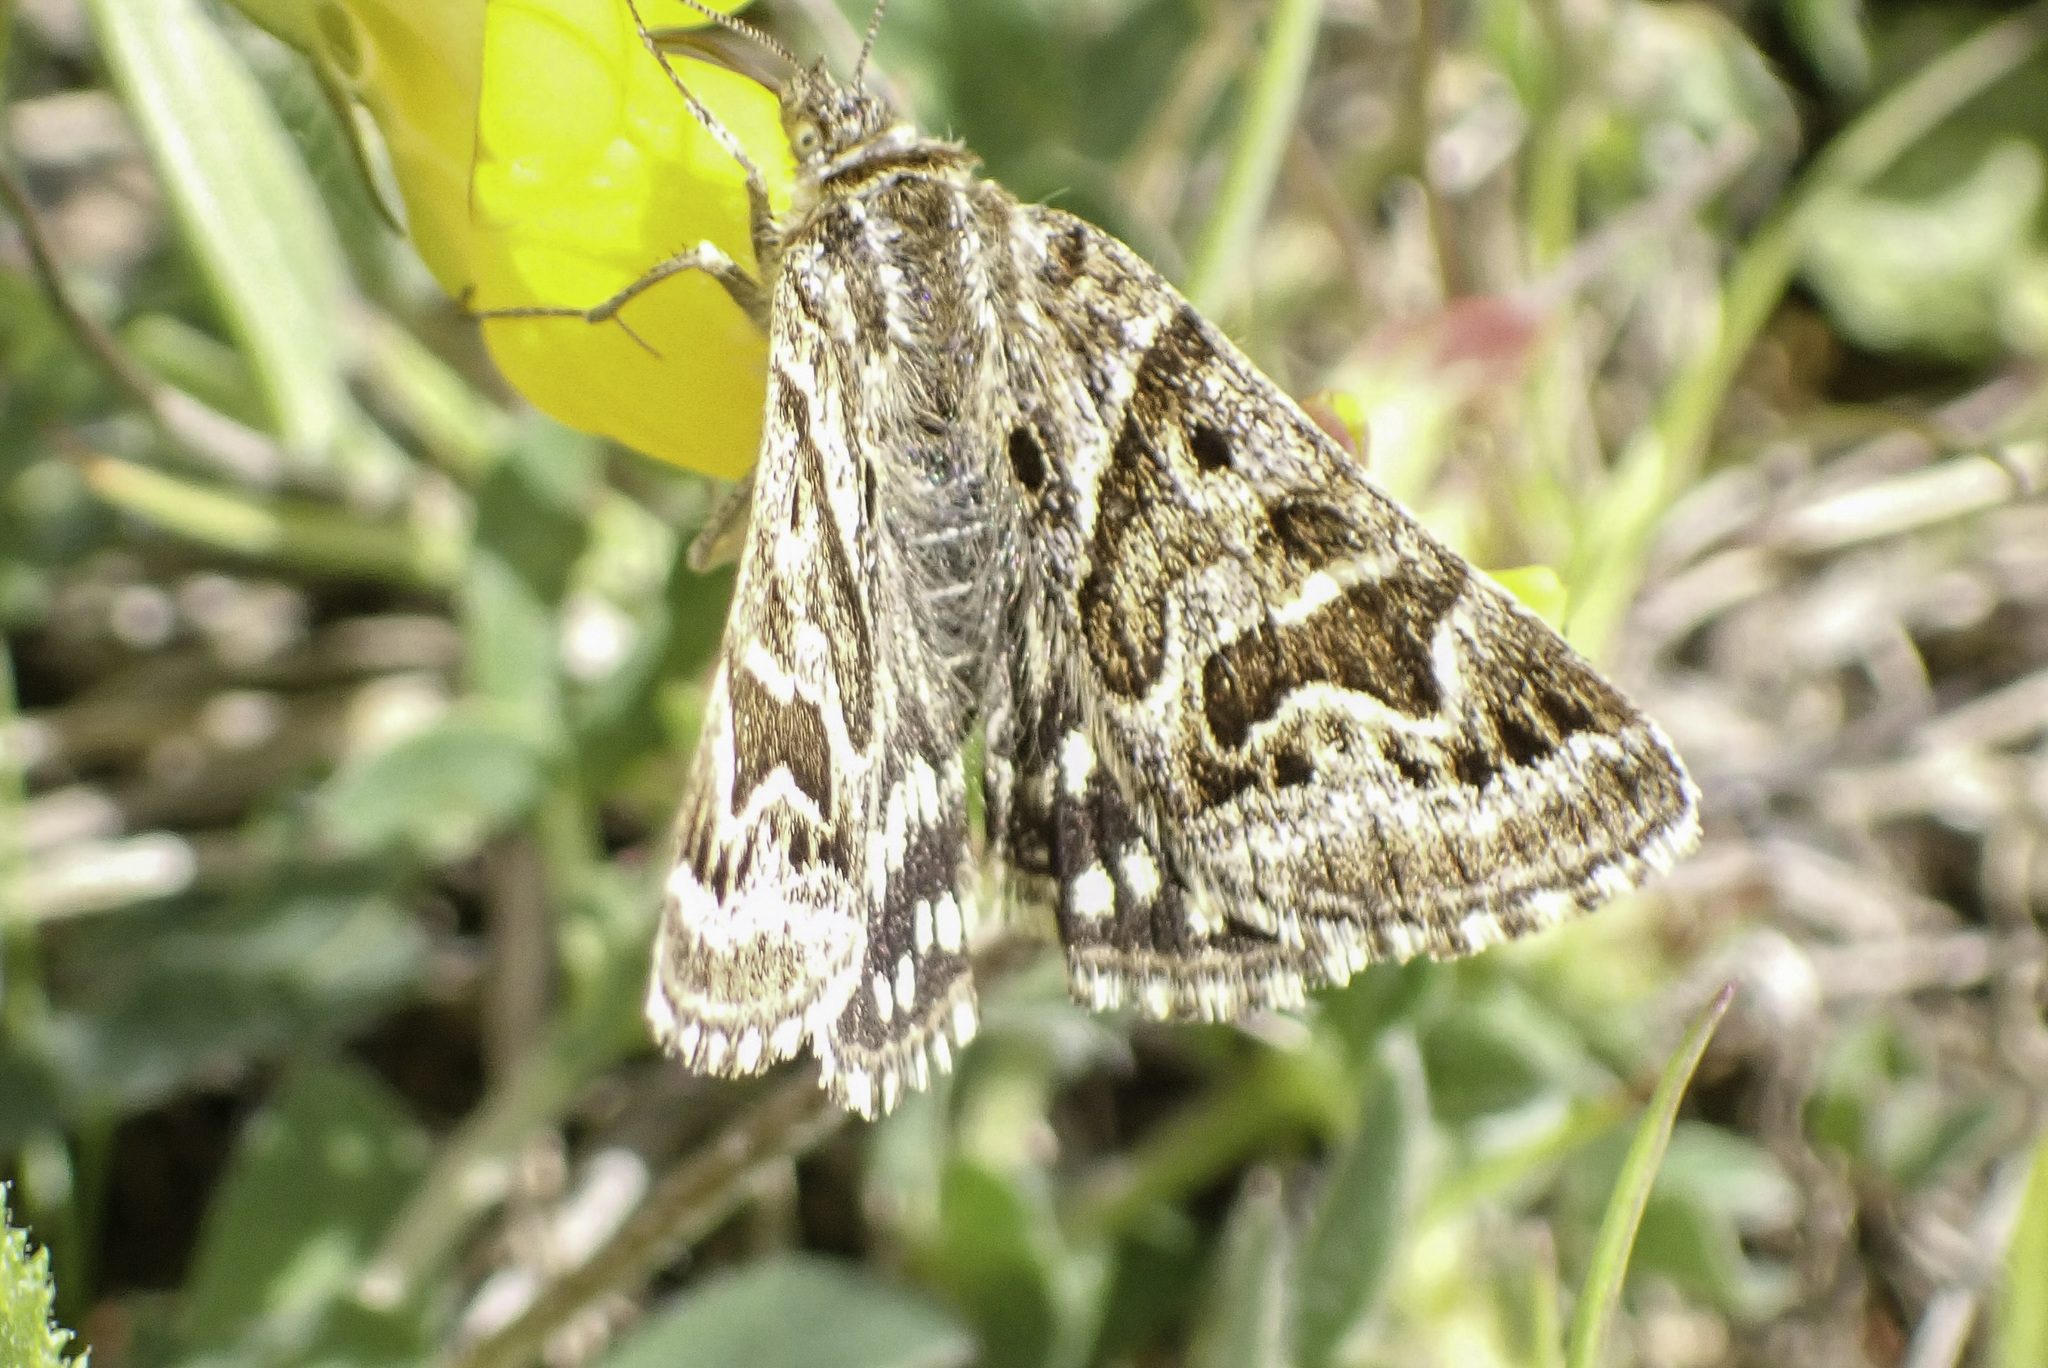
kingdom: Animalia
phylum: Arthropoda
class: Insecta
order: Lepidoptera
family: Erebidae
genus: Callistege
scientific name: Callistege mi
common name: Mother shipton
